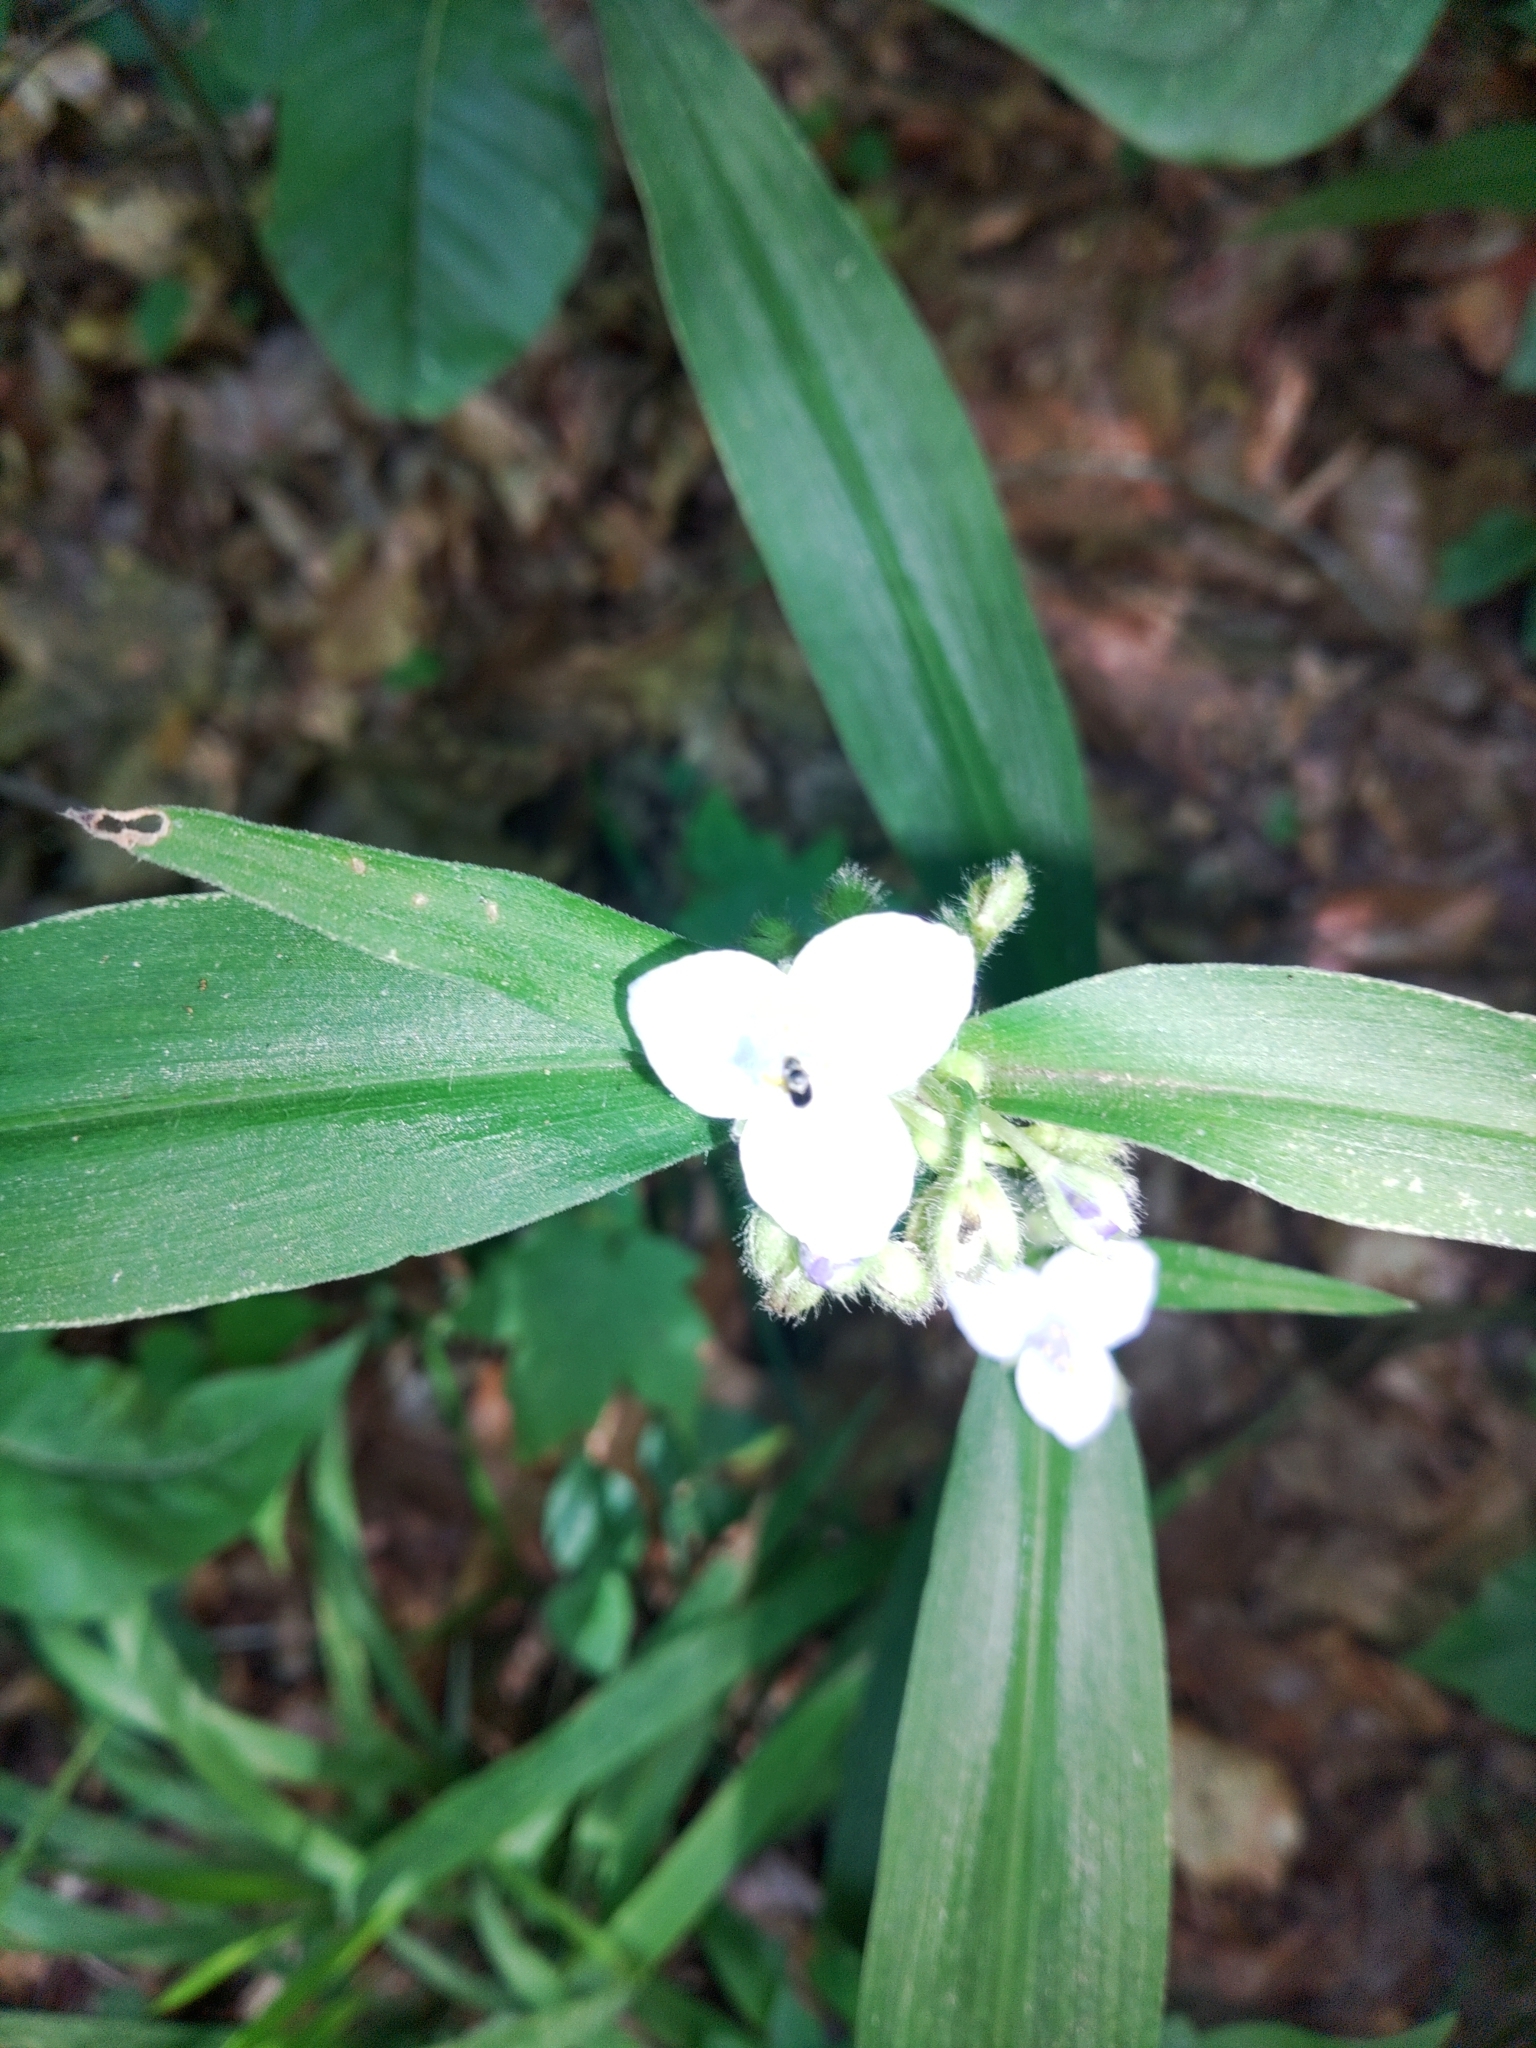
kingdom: Plantae
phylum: Tracheophyta
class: Liliopsida
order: Commelinales
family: Commelinaceae
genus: Tradescantia
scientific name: Tradescantia subaspera
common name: Wide-leaf spiderwort
